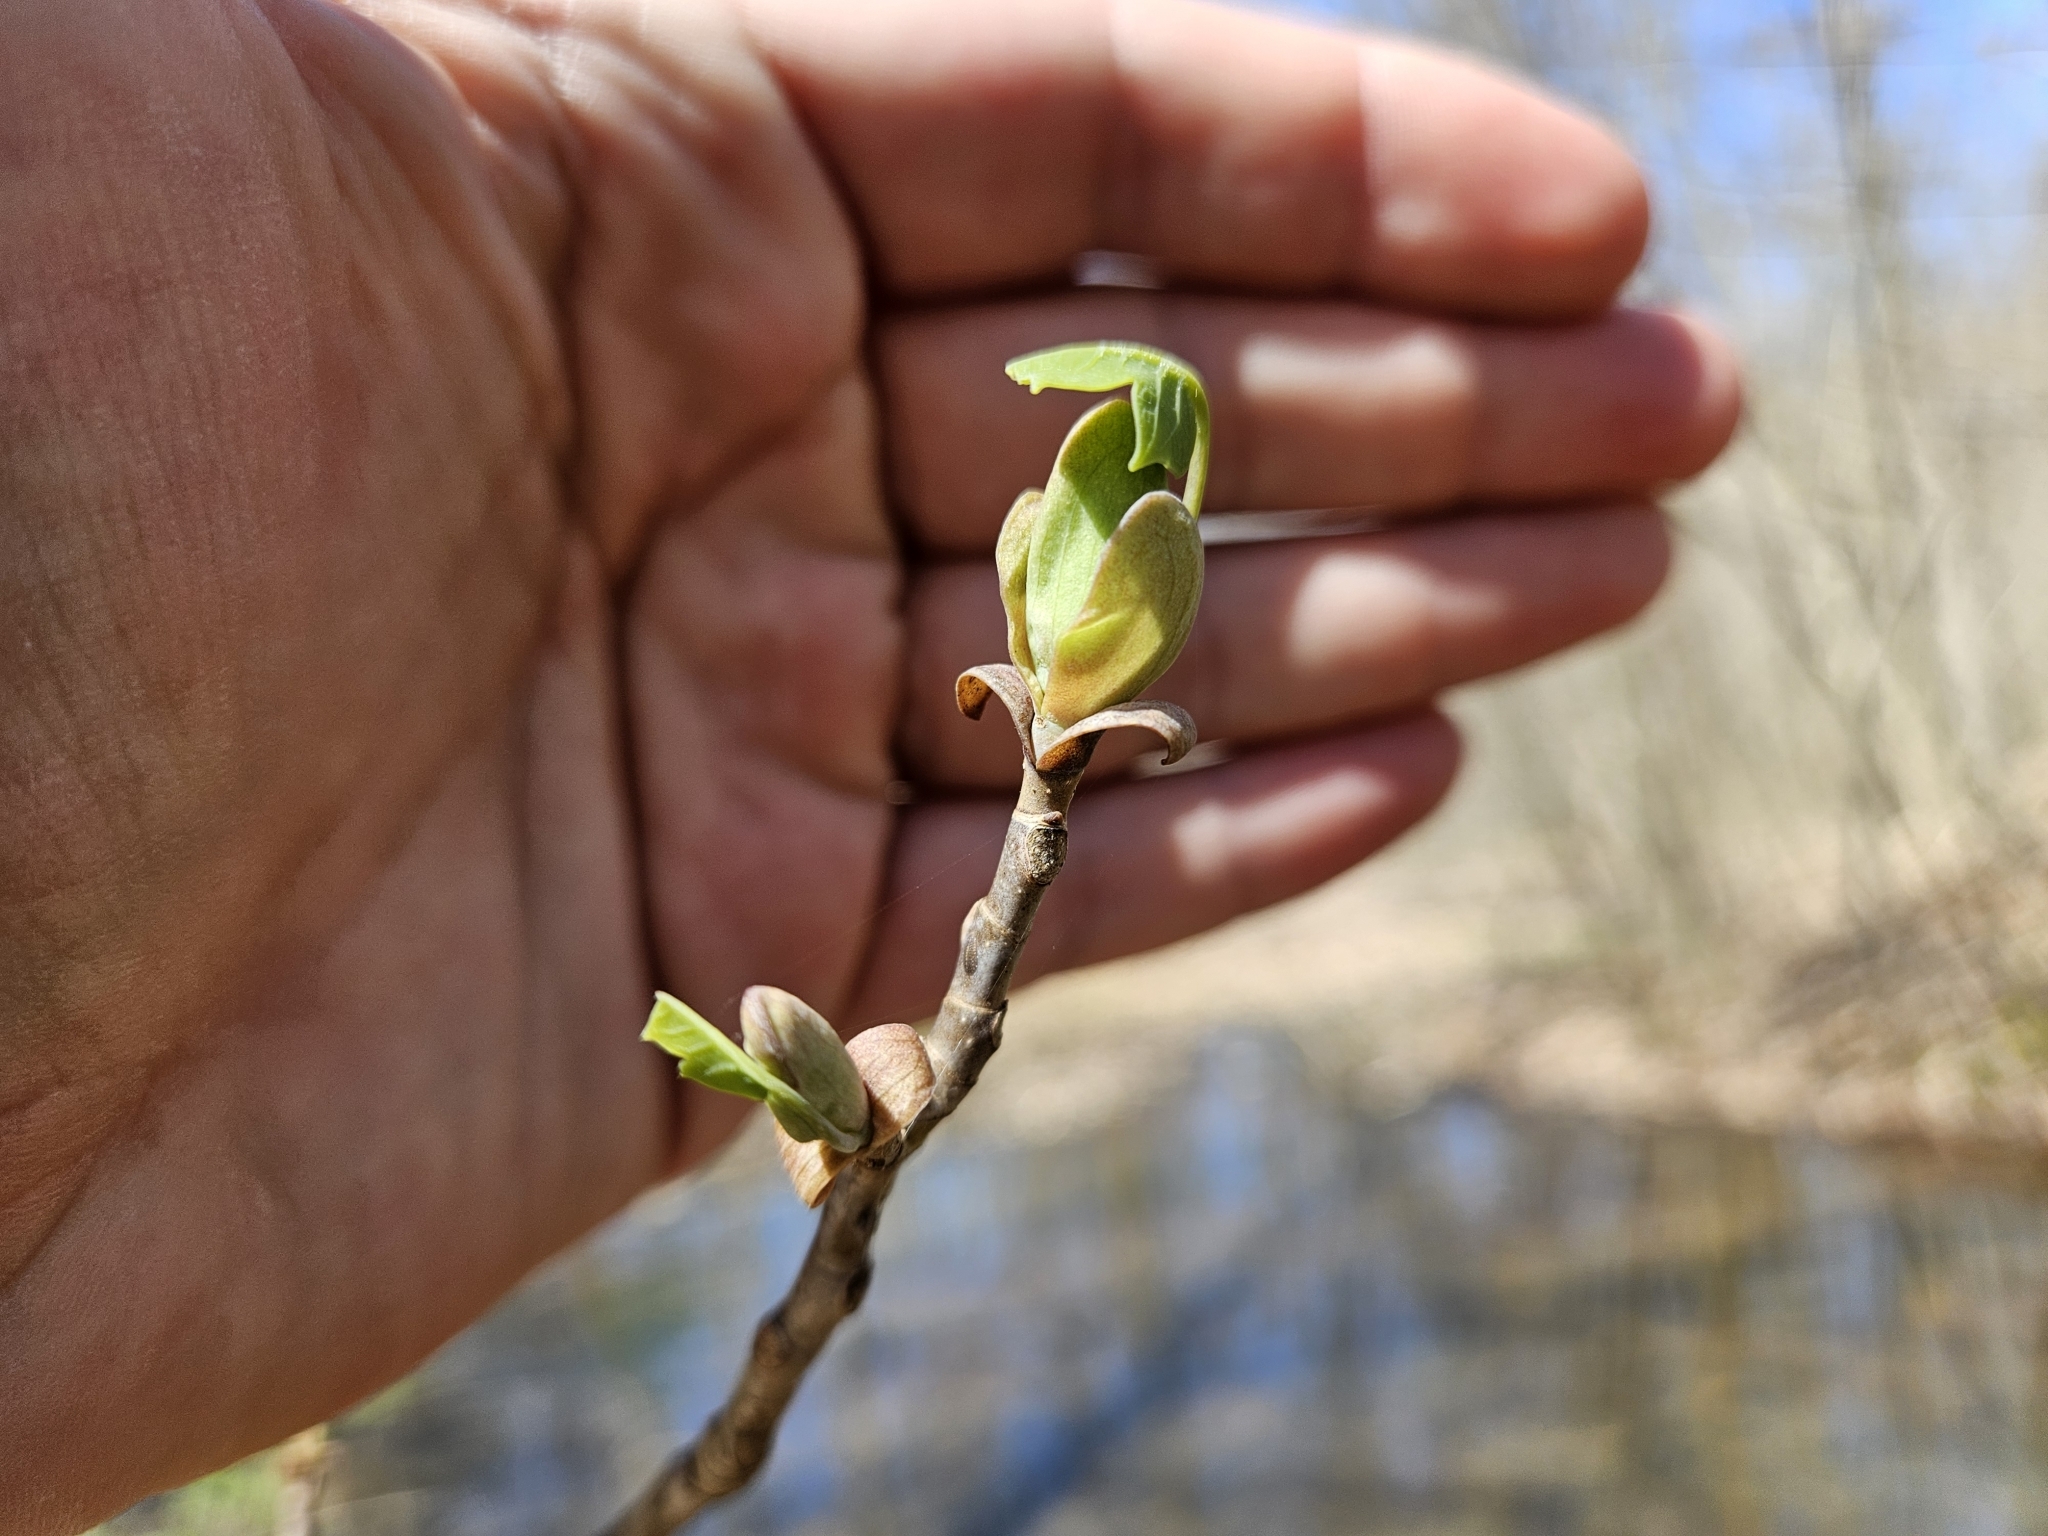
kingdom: Plantae
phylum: Tracheophyta
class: Magnoliopsida
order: Magnoliales
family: Magnoliaceae
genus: Liriodendron
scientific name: Liriodendron tulipifera
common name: Tulip tree
